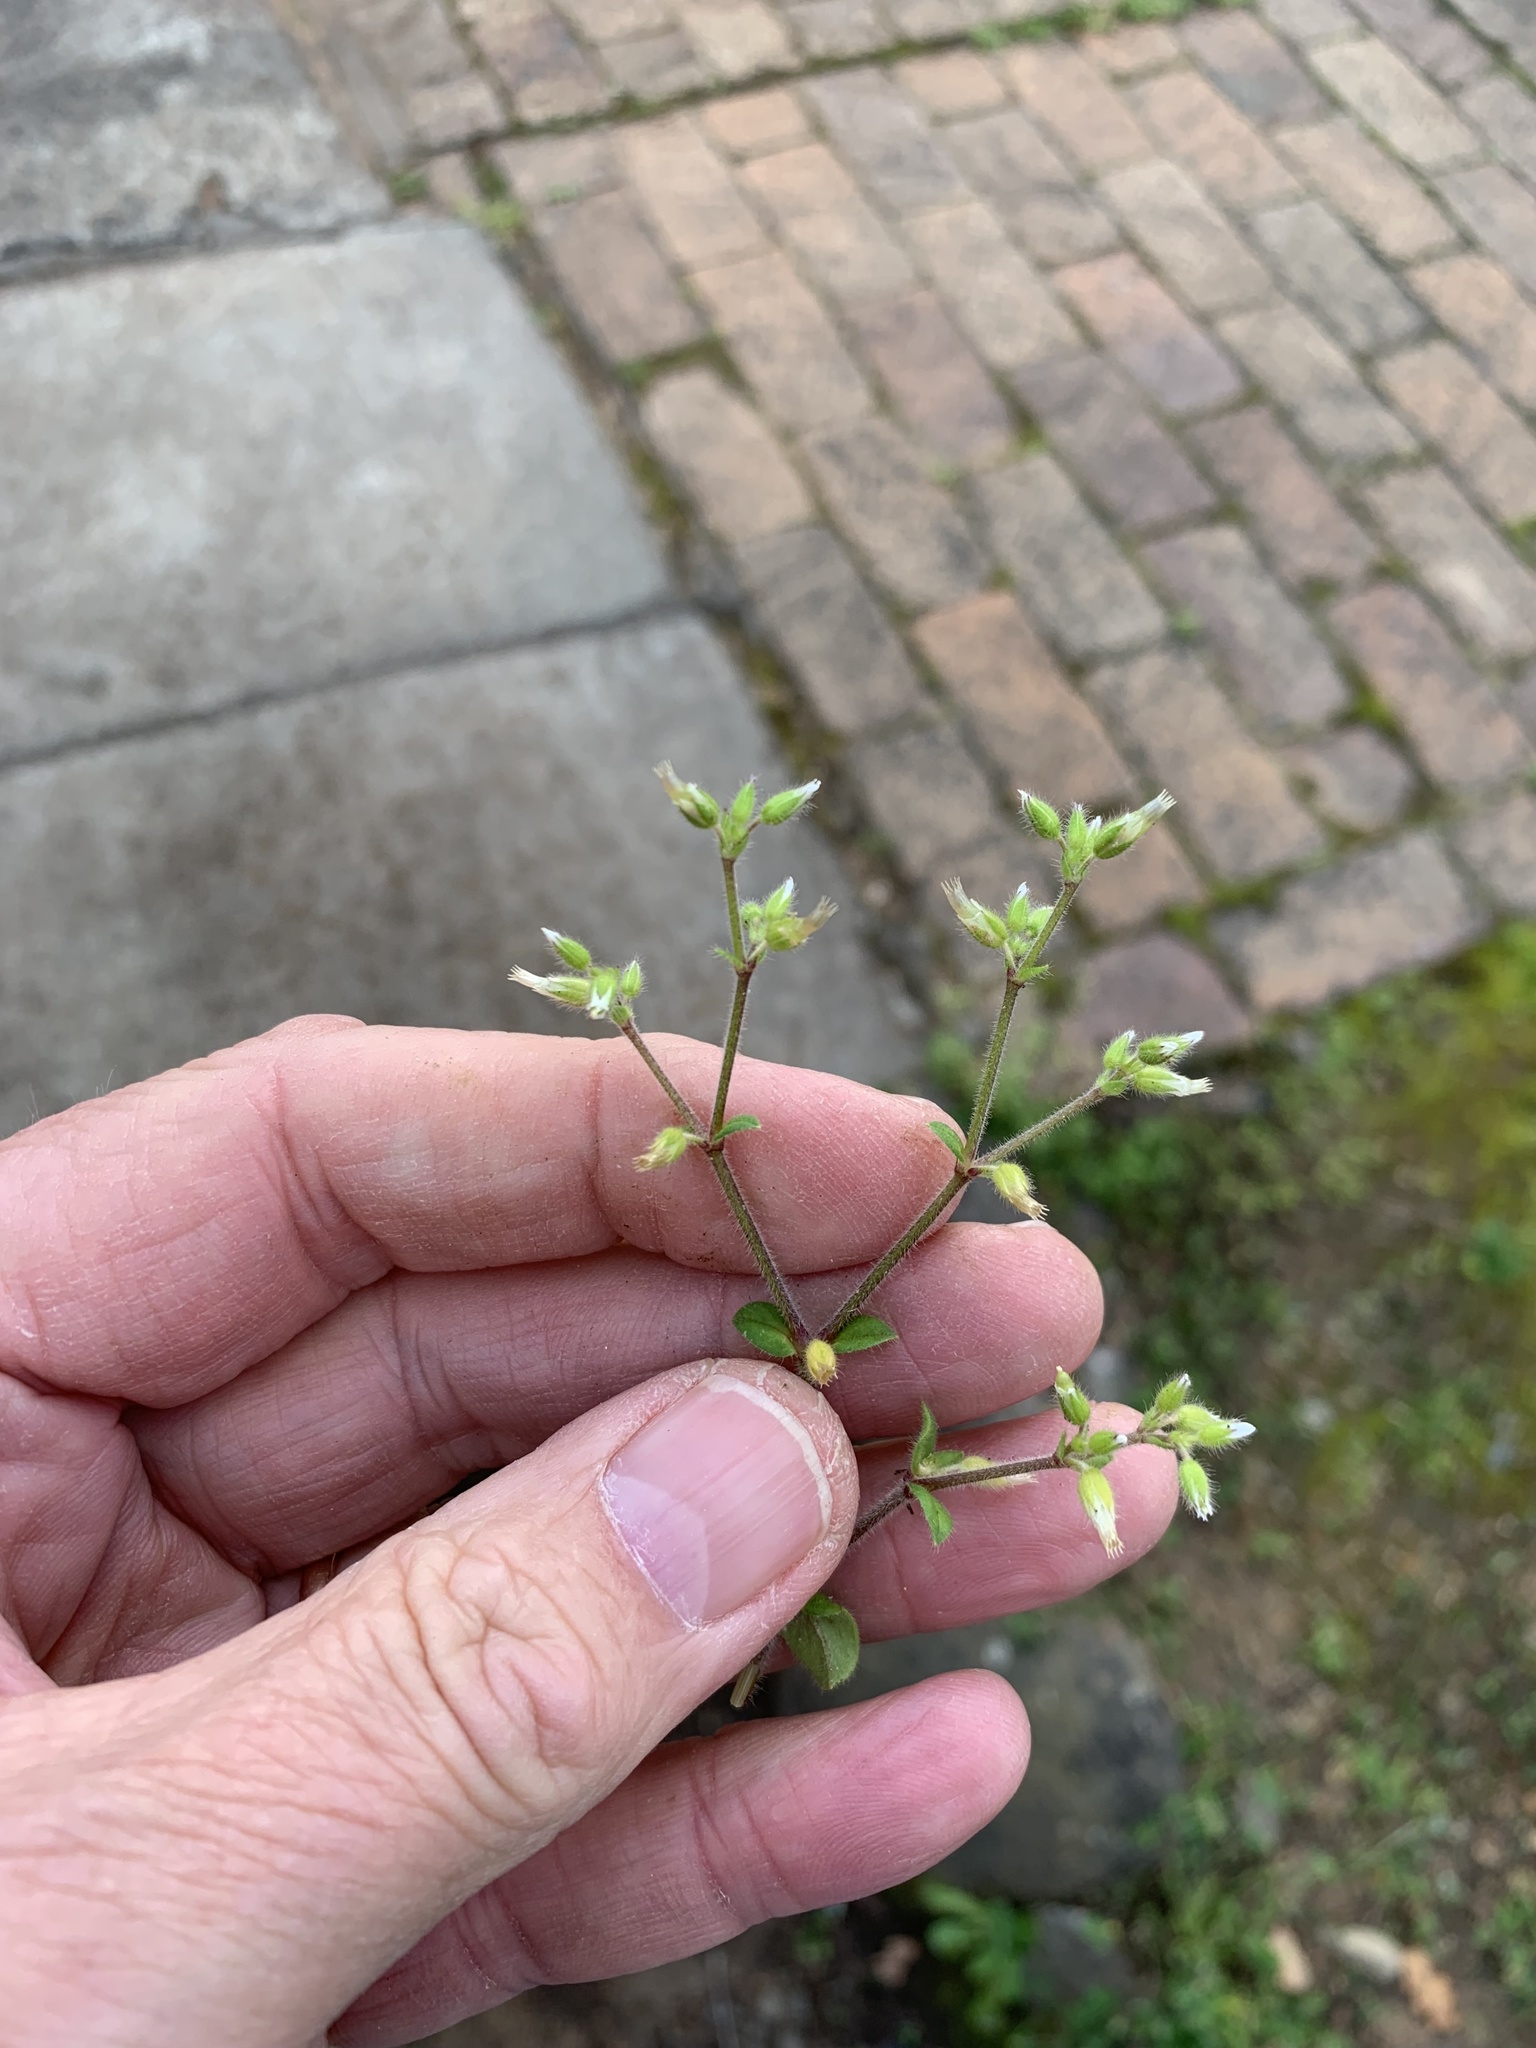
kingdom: Plantae
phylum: Tracheophyta
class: Magnoliopsida
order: Caryophyllales
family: Caryophyllaceae
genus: Cerastium
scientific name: Cerastium glomeratum
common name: Sticky chickweed
